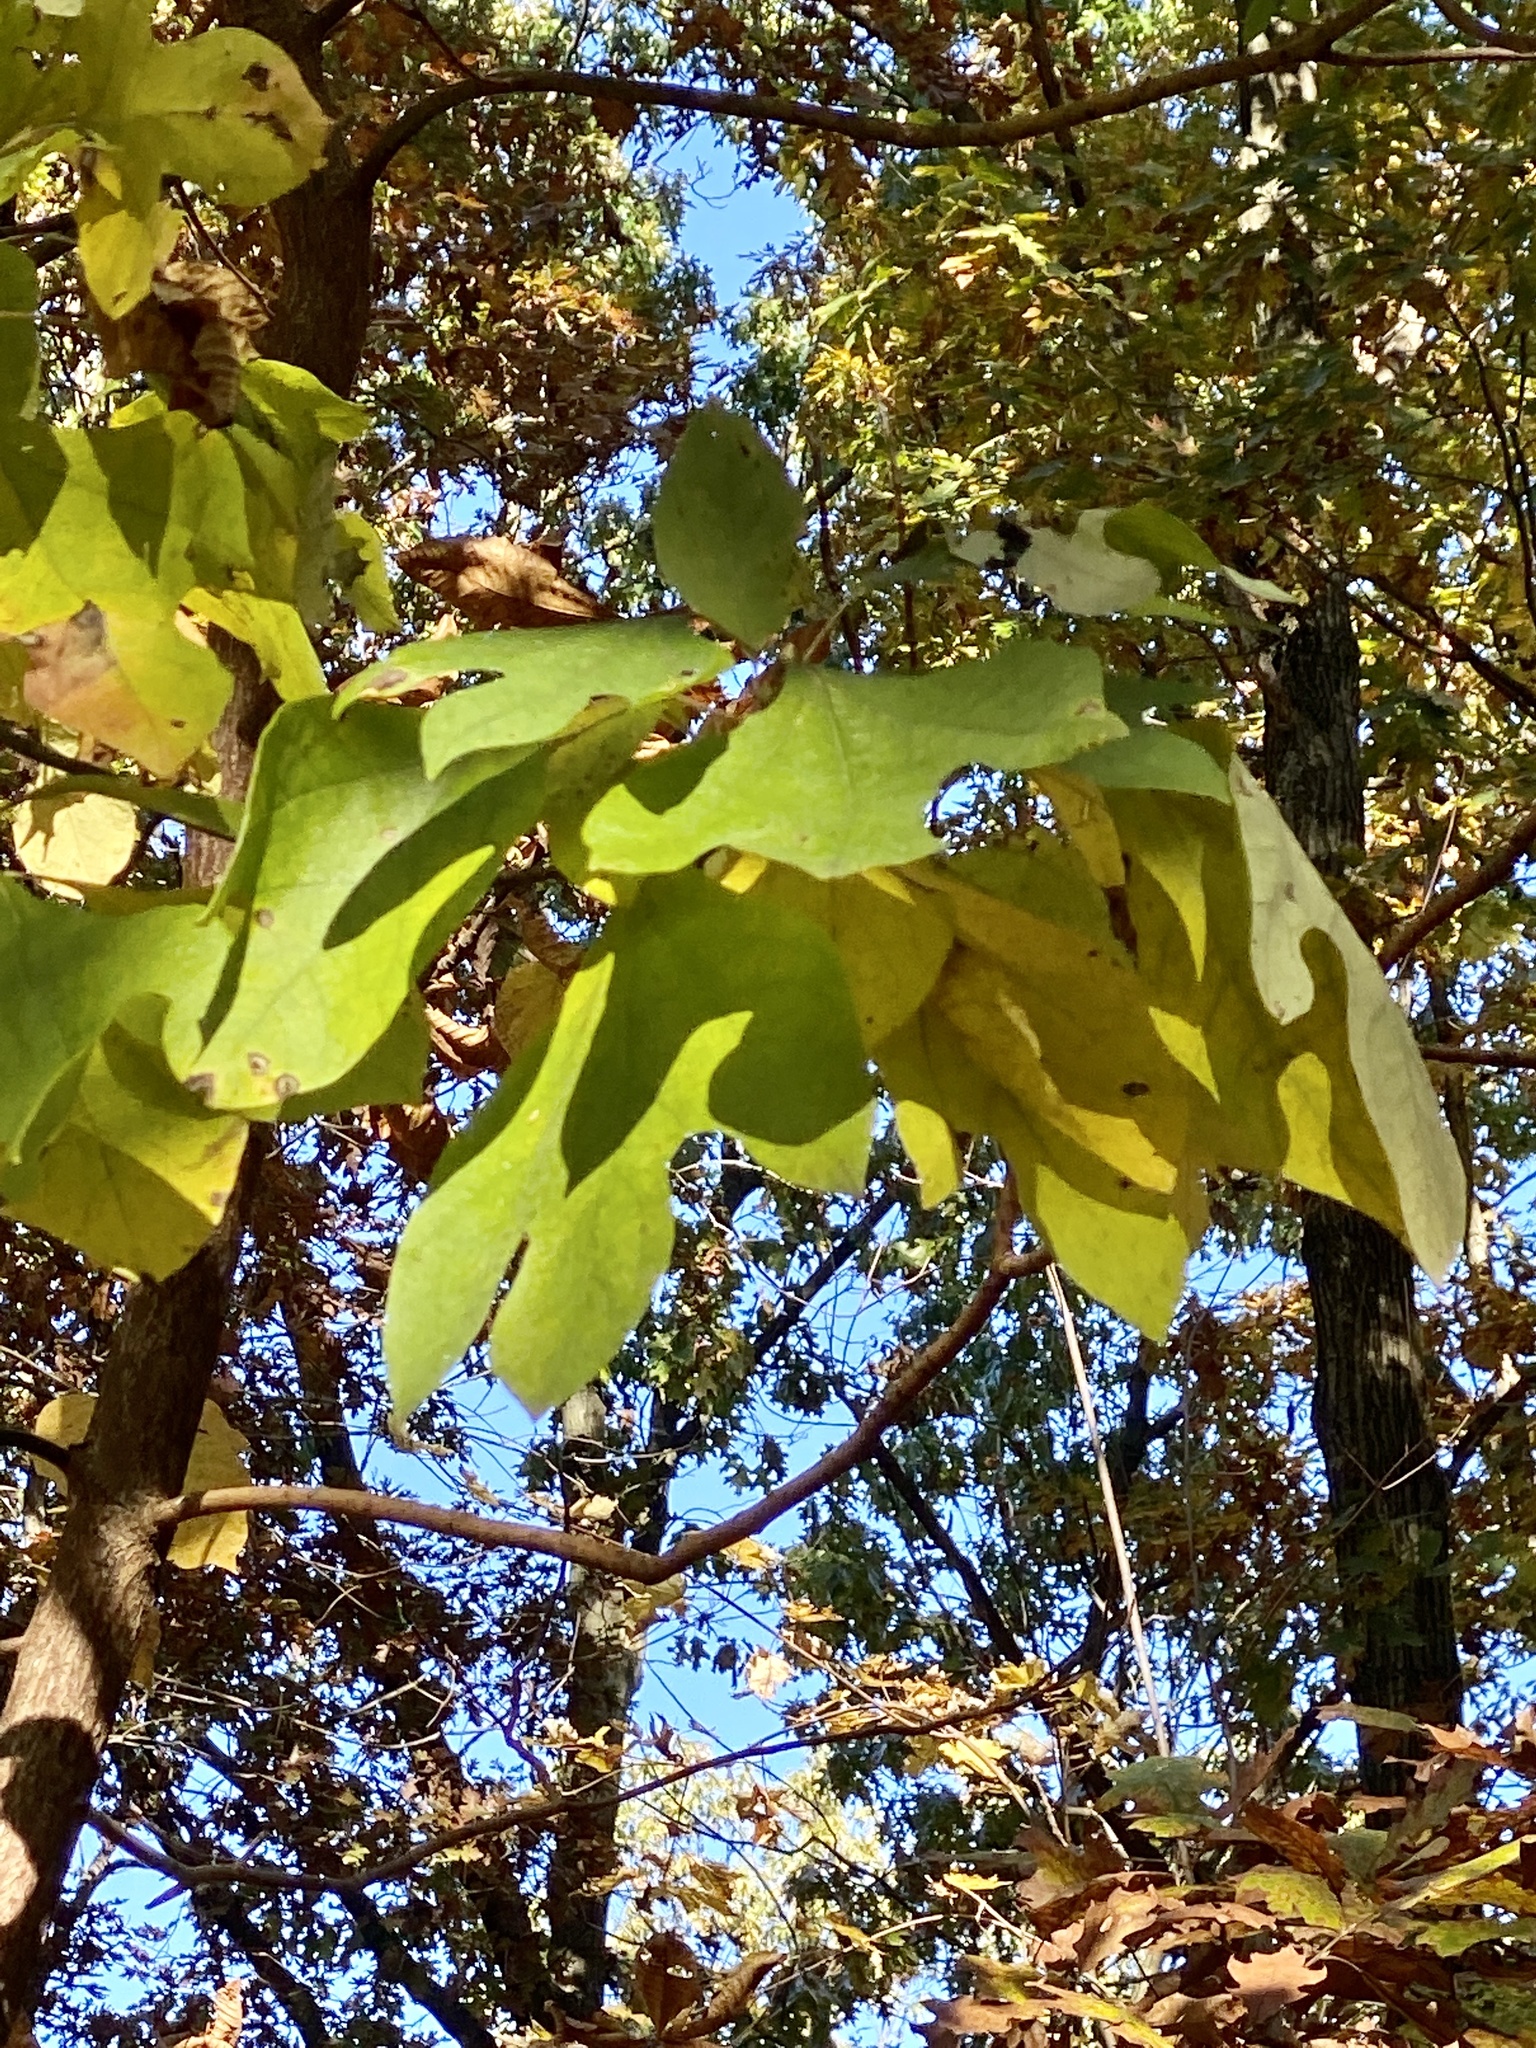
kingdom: Plantae
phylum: Tracheophyta
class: Magnoliopsida
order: Laurales
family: Lauraceae
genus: Sassafras
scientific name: Sassafras albidum
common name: Sassafras
